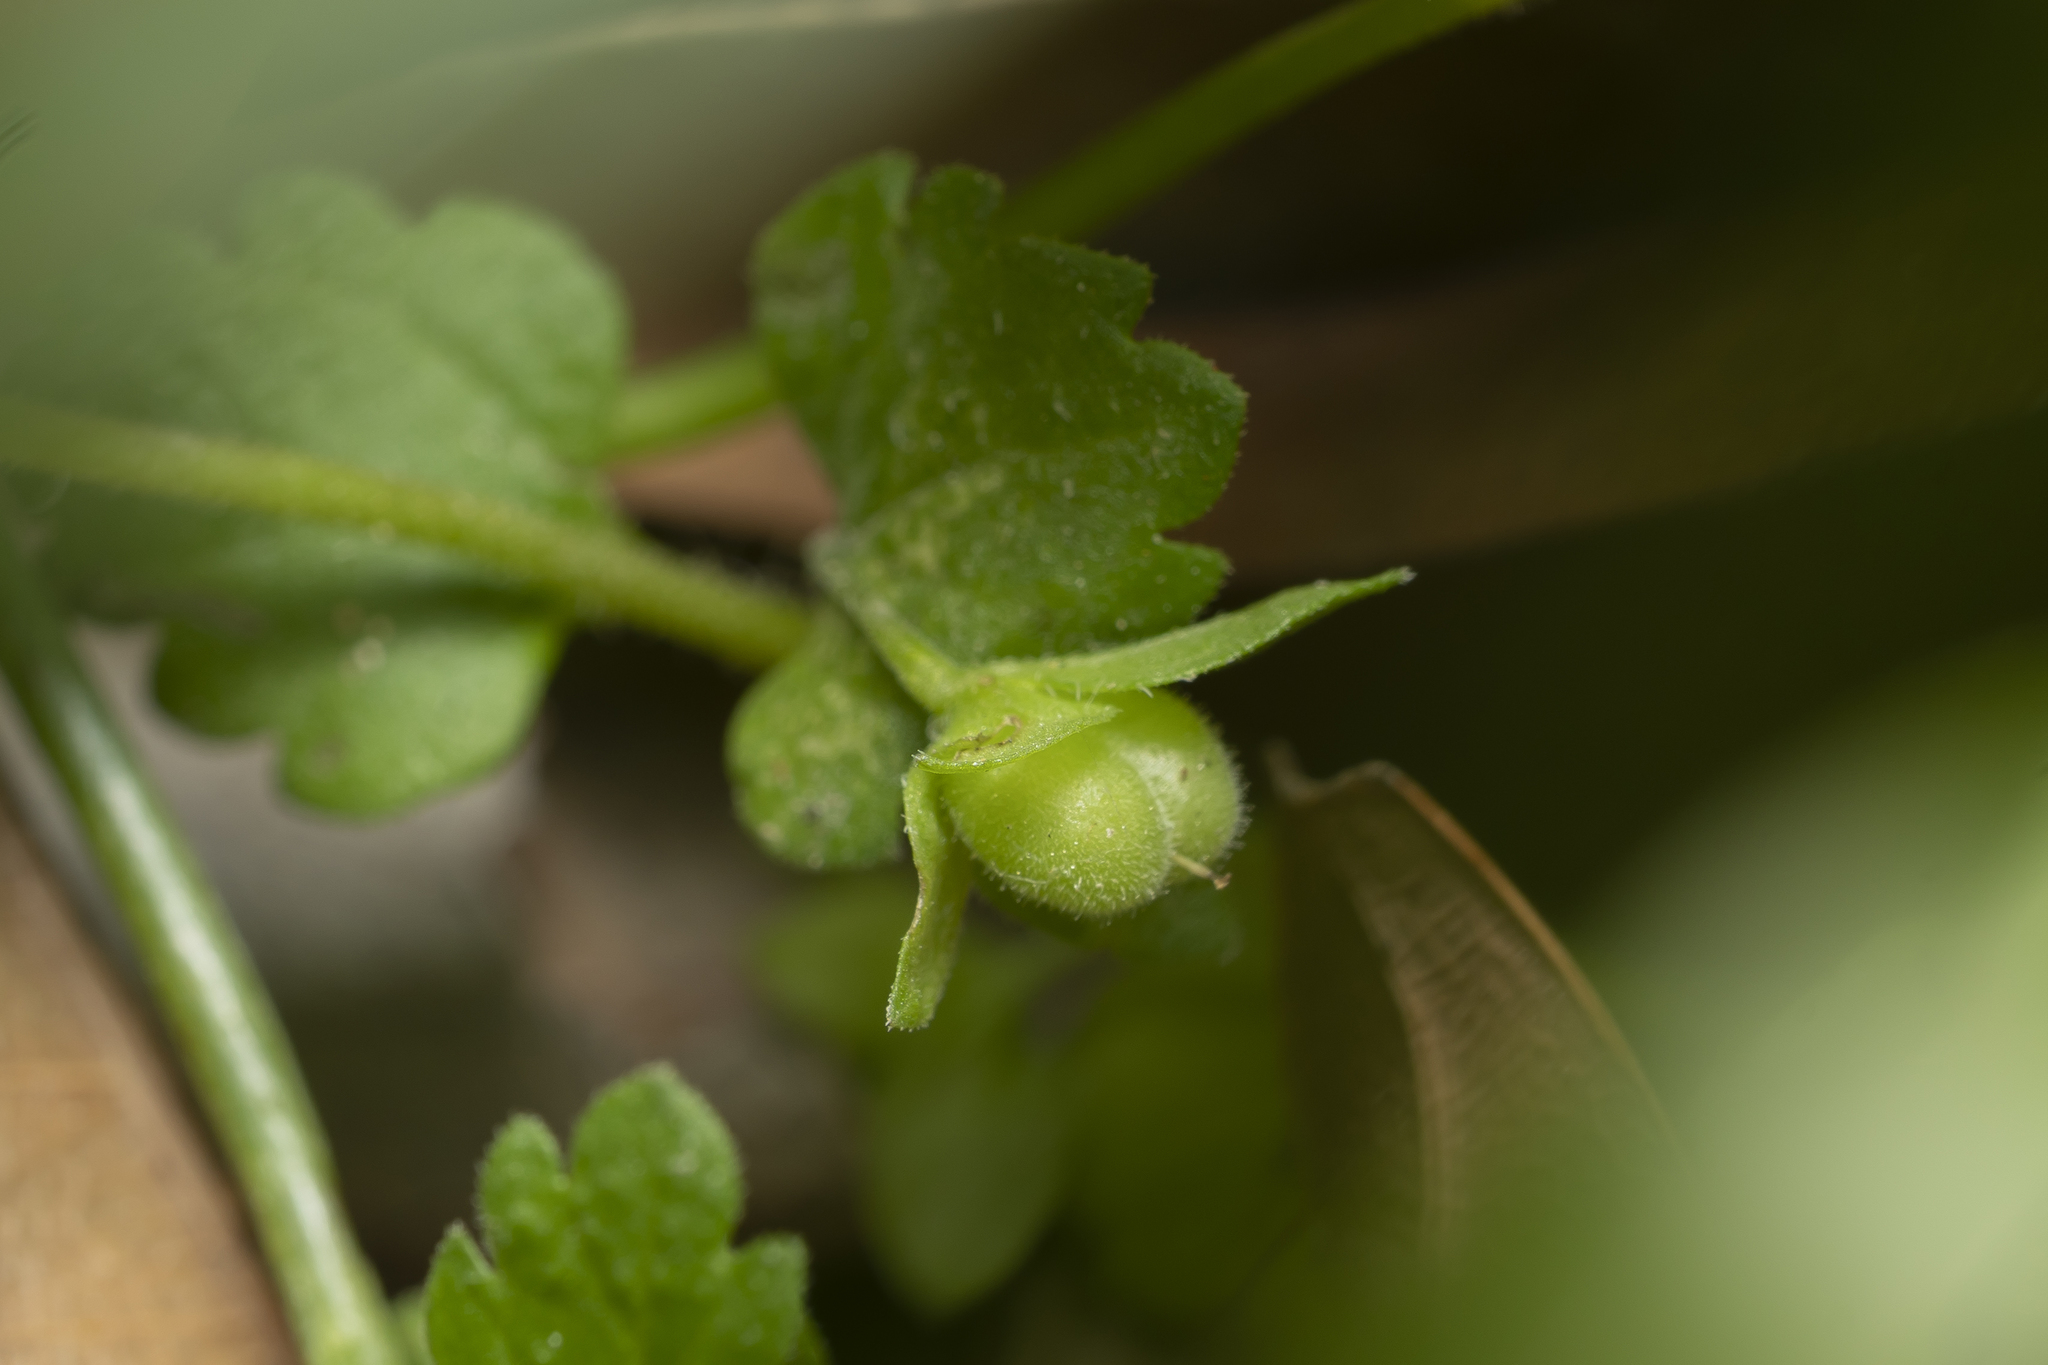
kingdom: Plantae
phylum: Tracheophyta
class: Magnoliopsida
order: Lamiales
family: Plantaginaceae
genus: Veronica
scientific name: Veronica polita
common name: Grey field-speedwell
